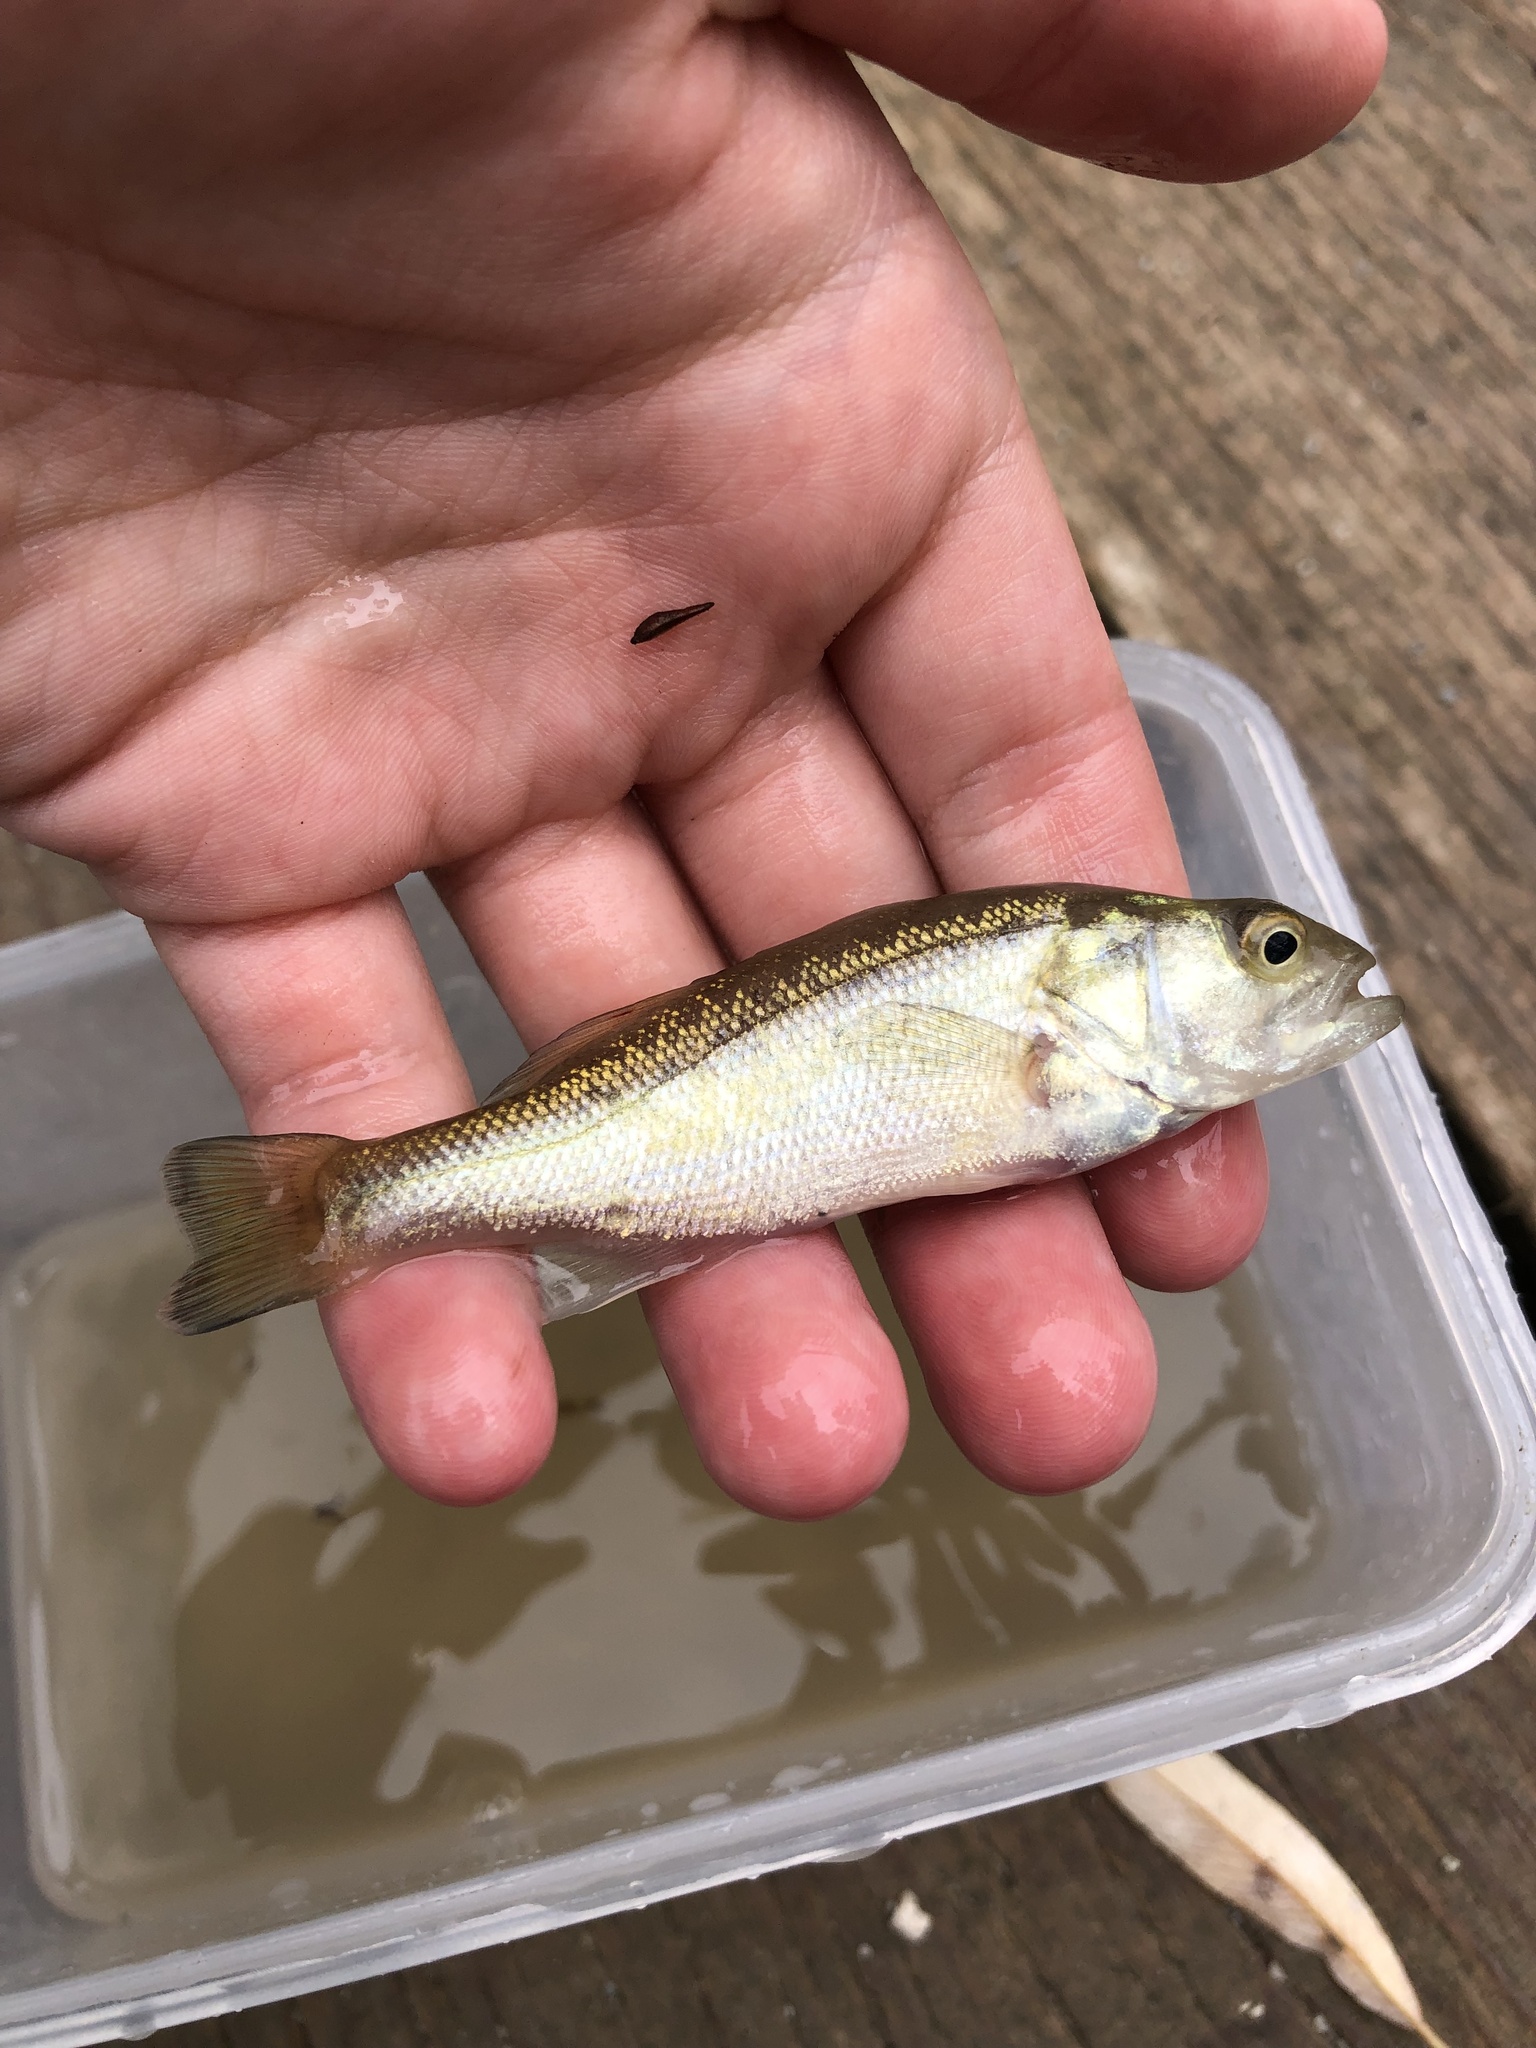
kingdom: Animalia
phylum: Chordata
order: Perciformes
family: Centrarchidae
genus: Micropterus
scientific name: Micropterus
